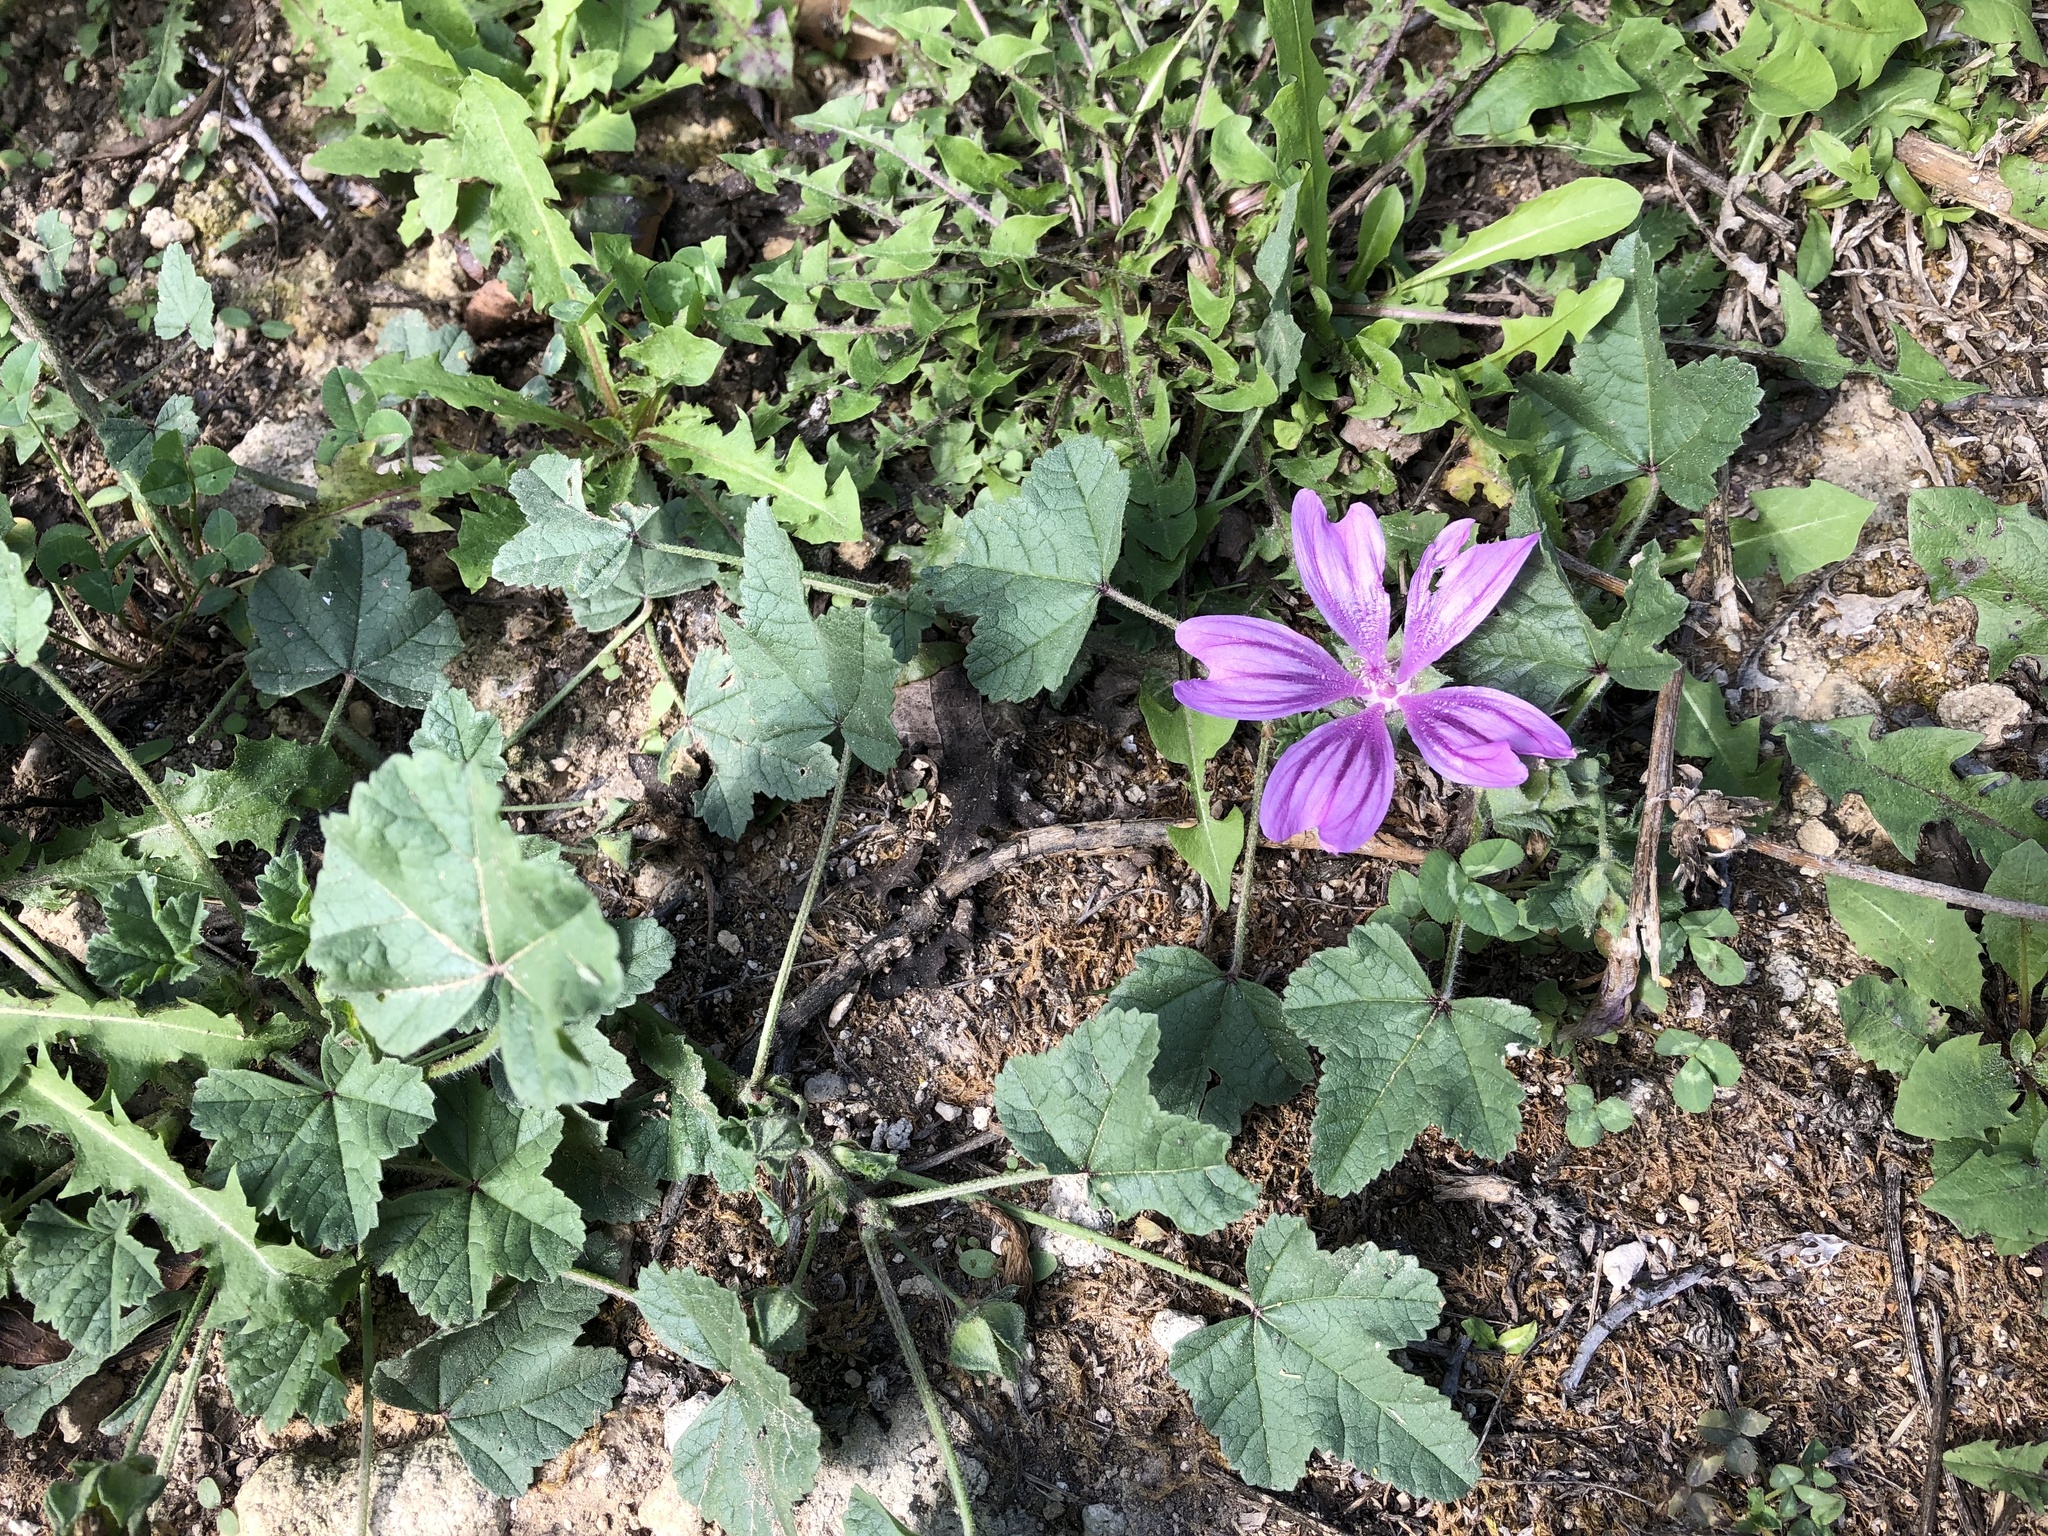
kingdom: Plantae
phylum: Tracheophyta
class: Magnoliopsida
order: Malvales
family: Malvaceae
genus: Malva
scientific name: Malva sylvestris
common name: Common mallow
